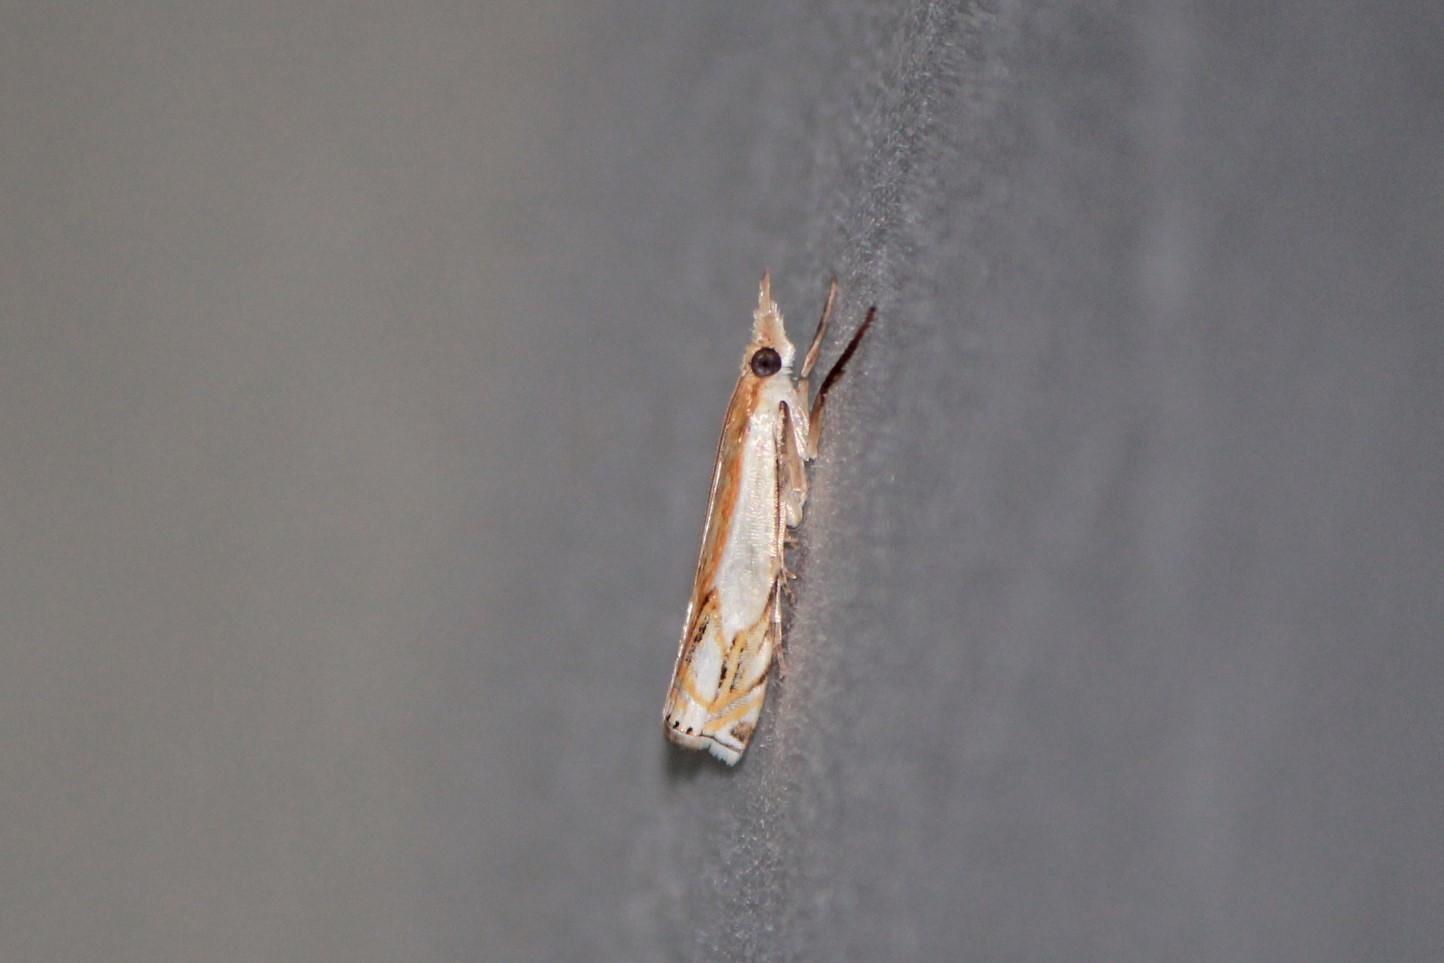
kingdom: Animalia
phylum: Arthropoda
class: Insecta
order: Lepidoptera
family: Crambidae
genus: Crambus
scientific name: Crambus agitatellus
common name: Double-banded grass-veneer
